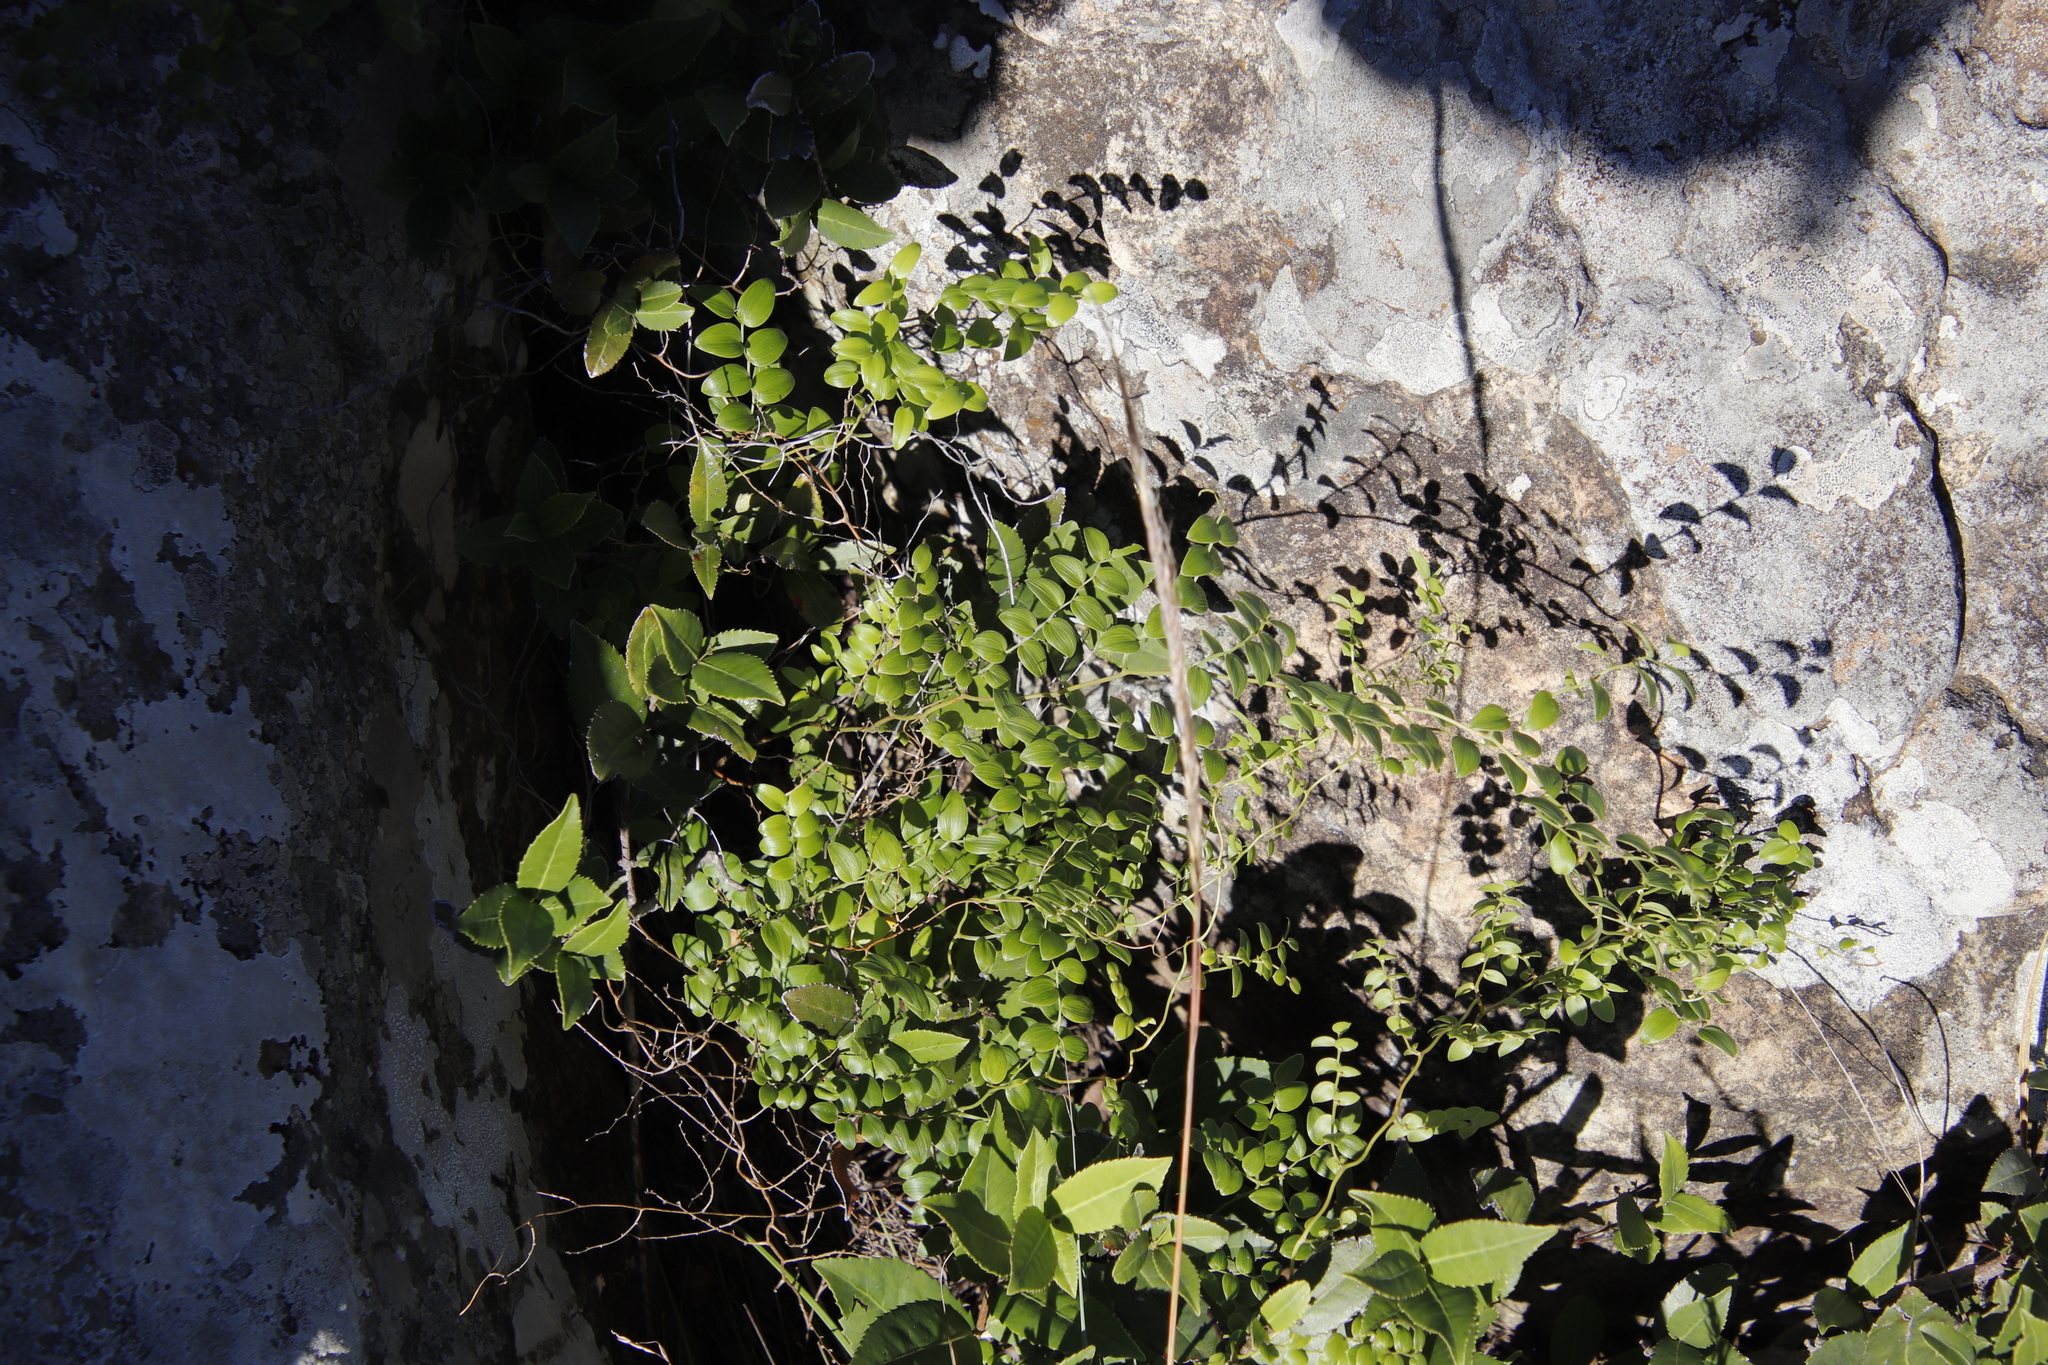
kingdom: Plantae
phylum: Tracheophyta
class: Liliopsida
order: Asparagales
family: Asparagaceae
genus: Asparagus
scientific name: Asparagus asparagoides
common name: African asparagus fern
